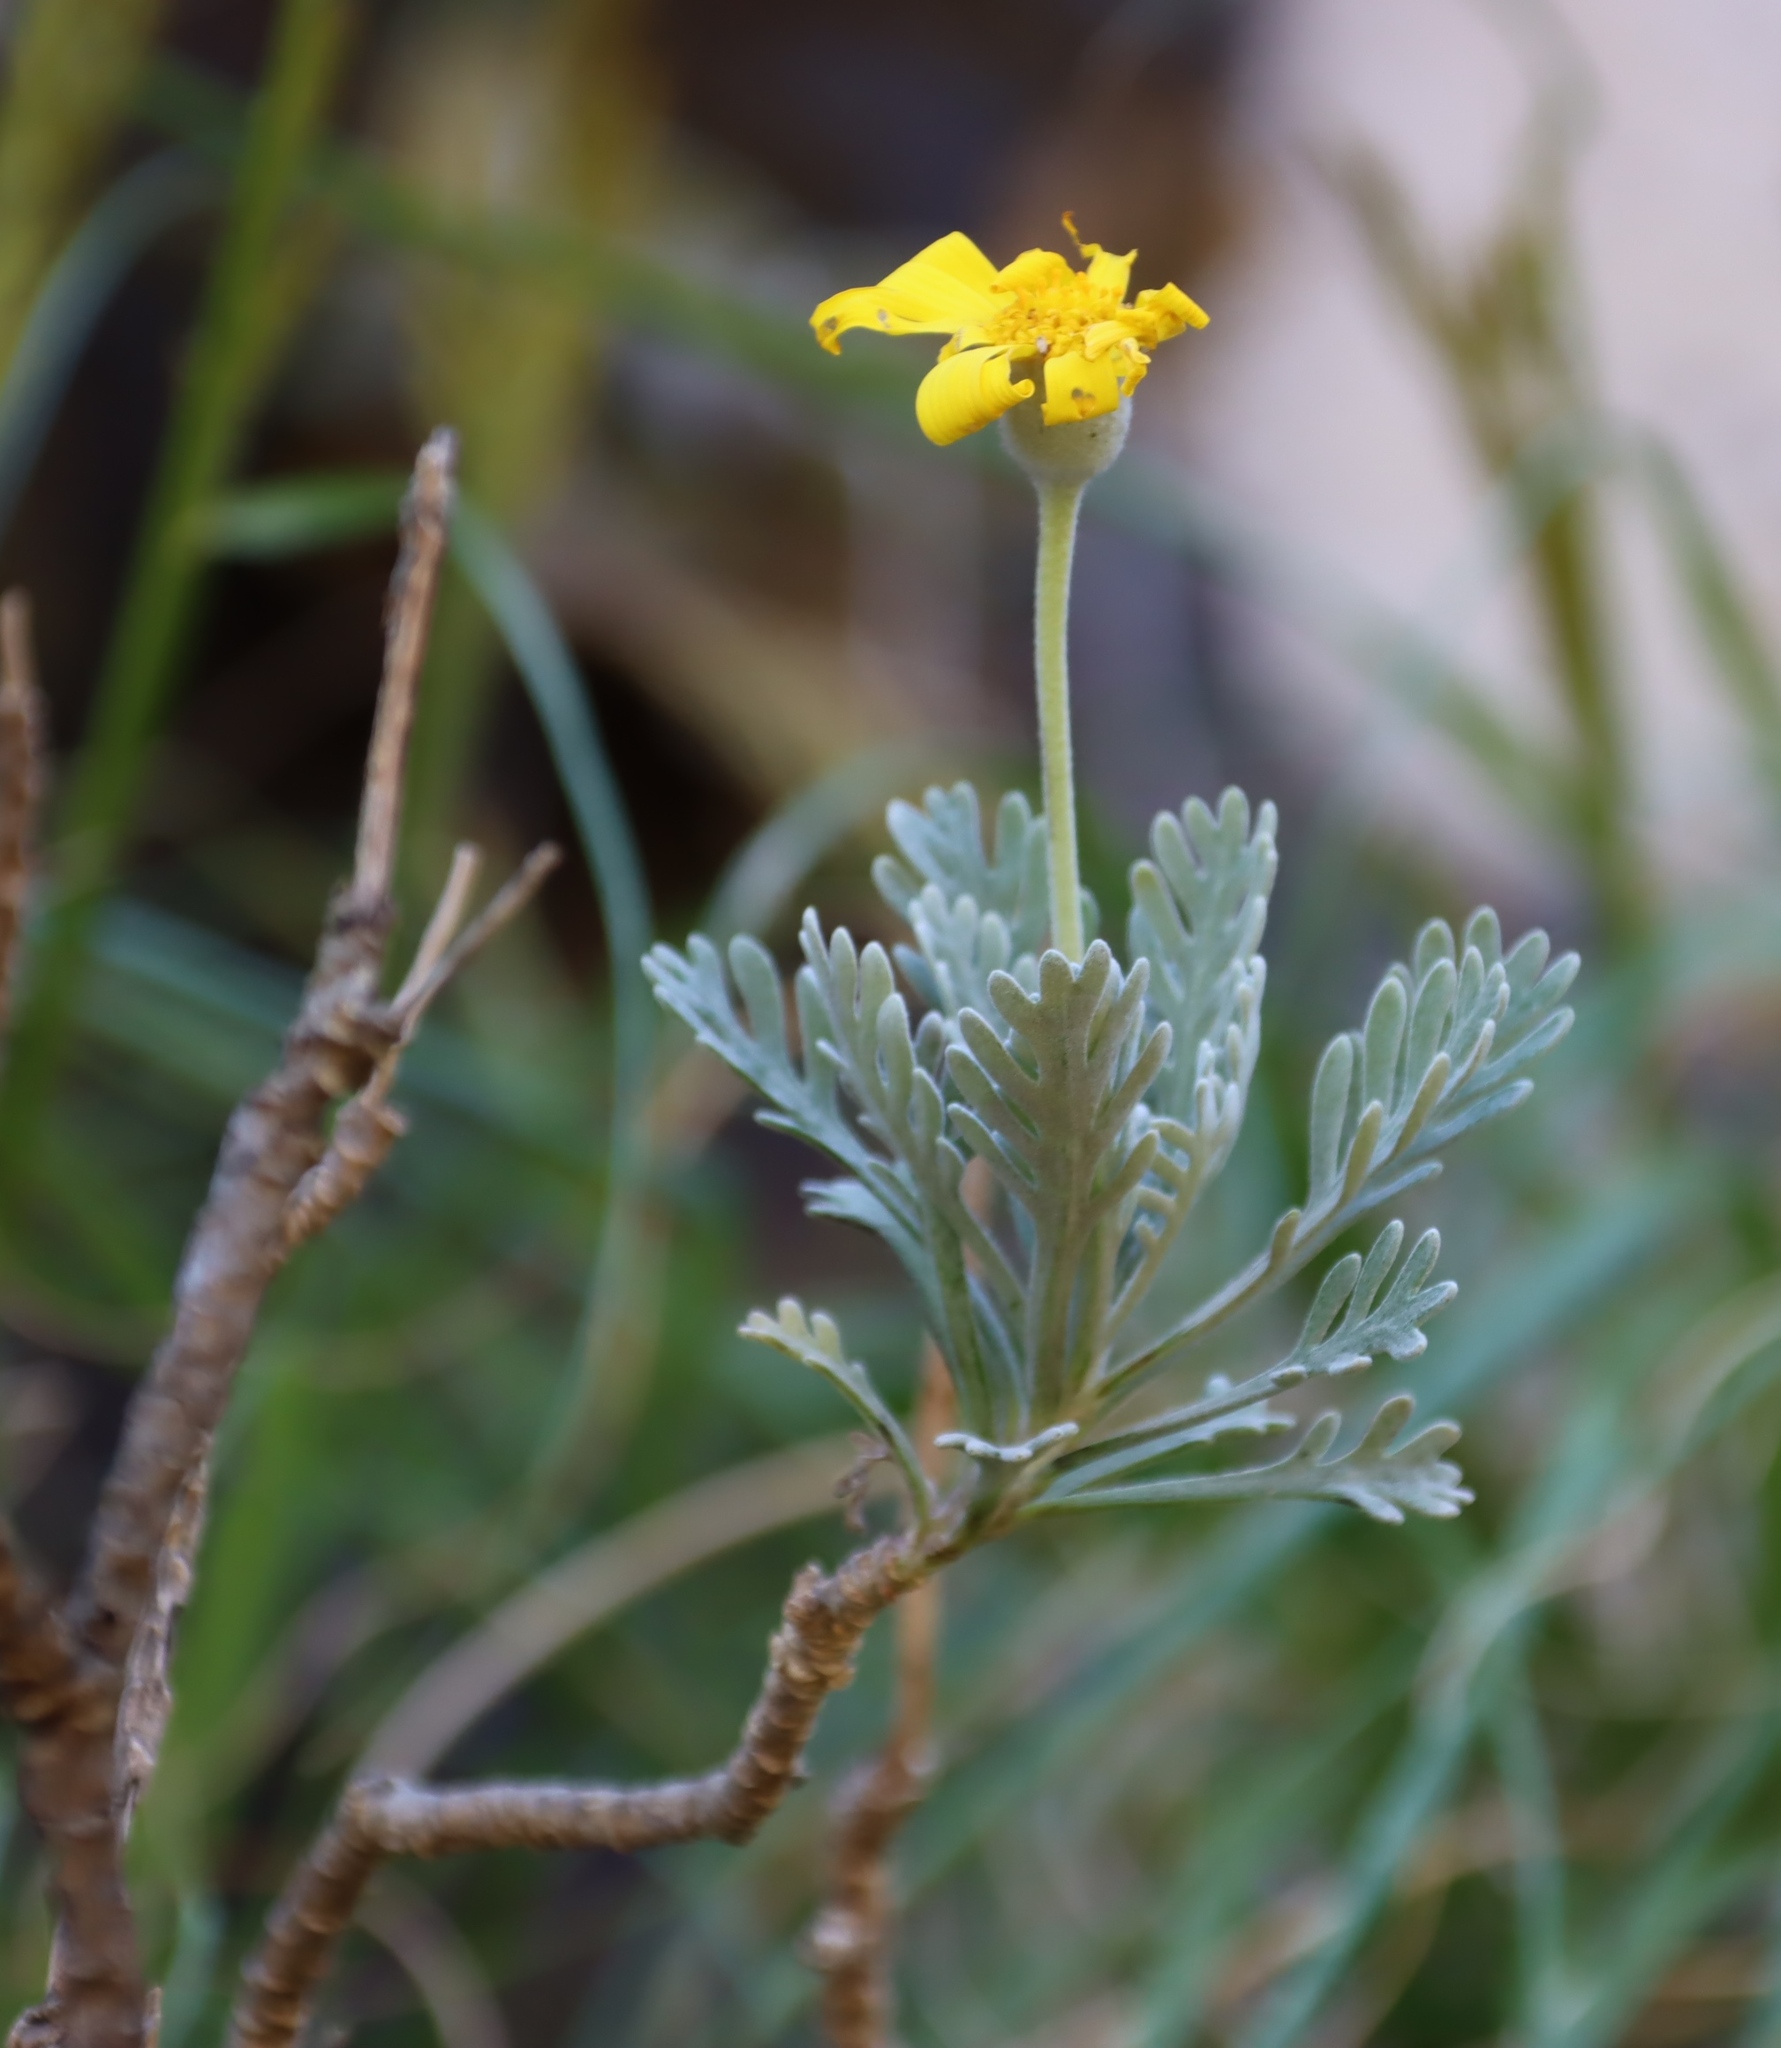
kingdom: Plantae
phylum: Tracheophyta
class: Magnoliopsida
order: Asterales
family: Asteraceae
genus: Euryops
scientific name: Euryops pectinatus
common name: Gray-leaf euryops
